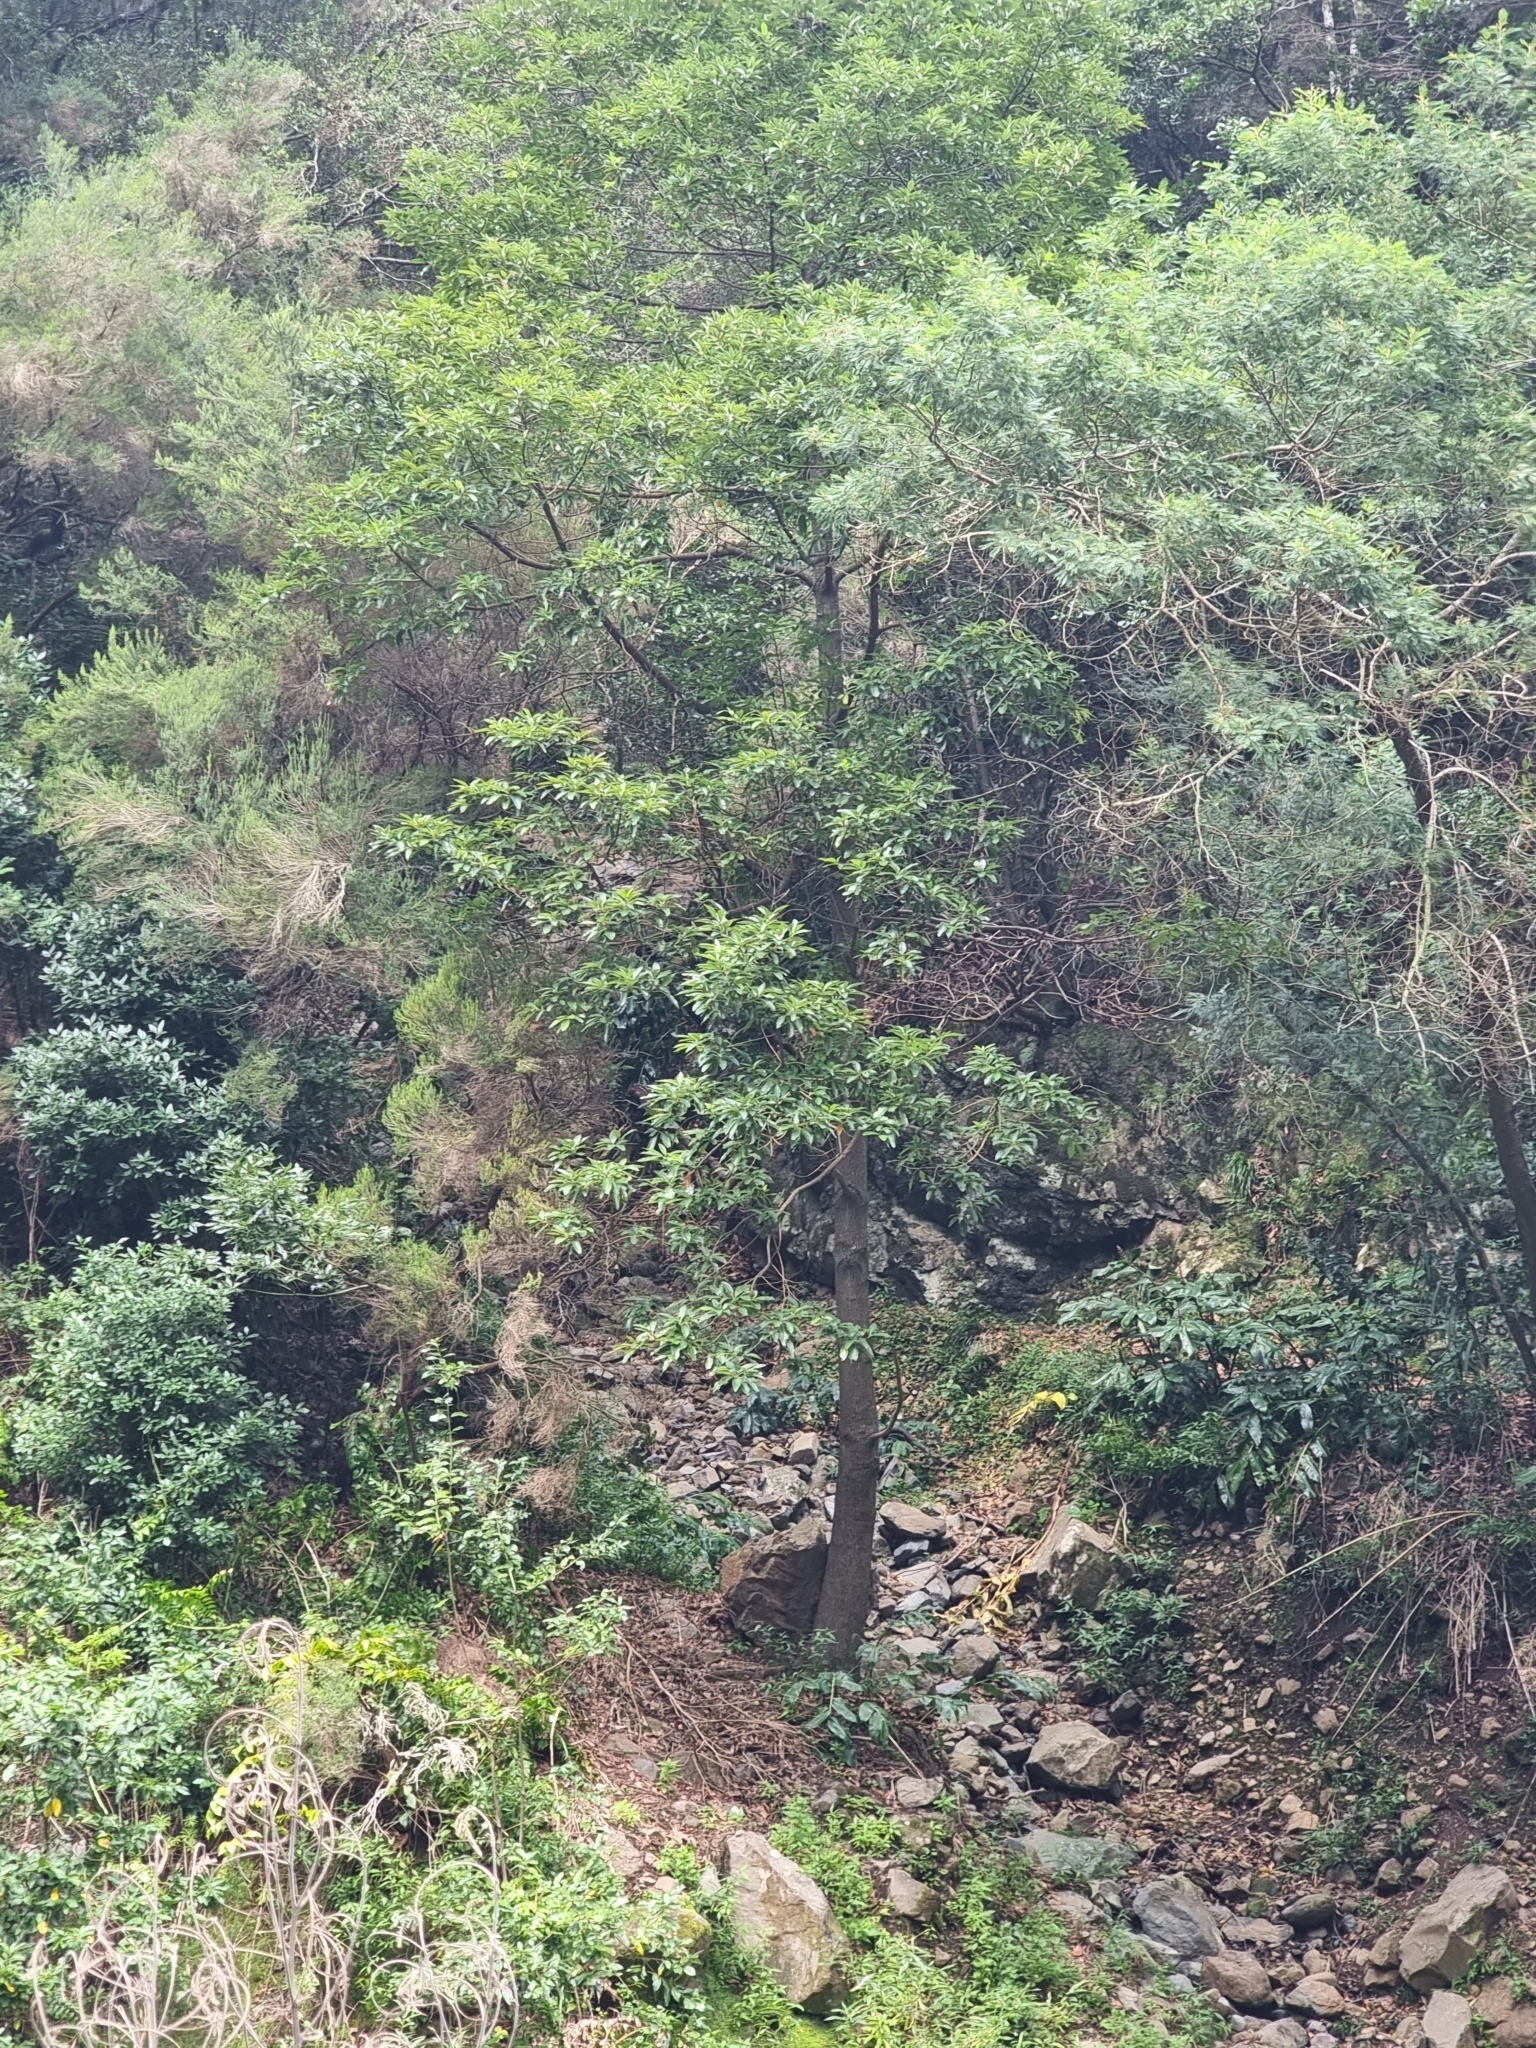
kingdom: Plantae
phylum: Tracheophyta
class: Magnoliopsida
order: Laurales
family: Lauraceae
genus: Persea
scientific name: Persea indica
